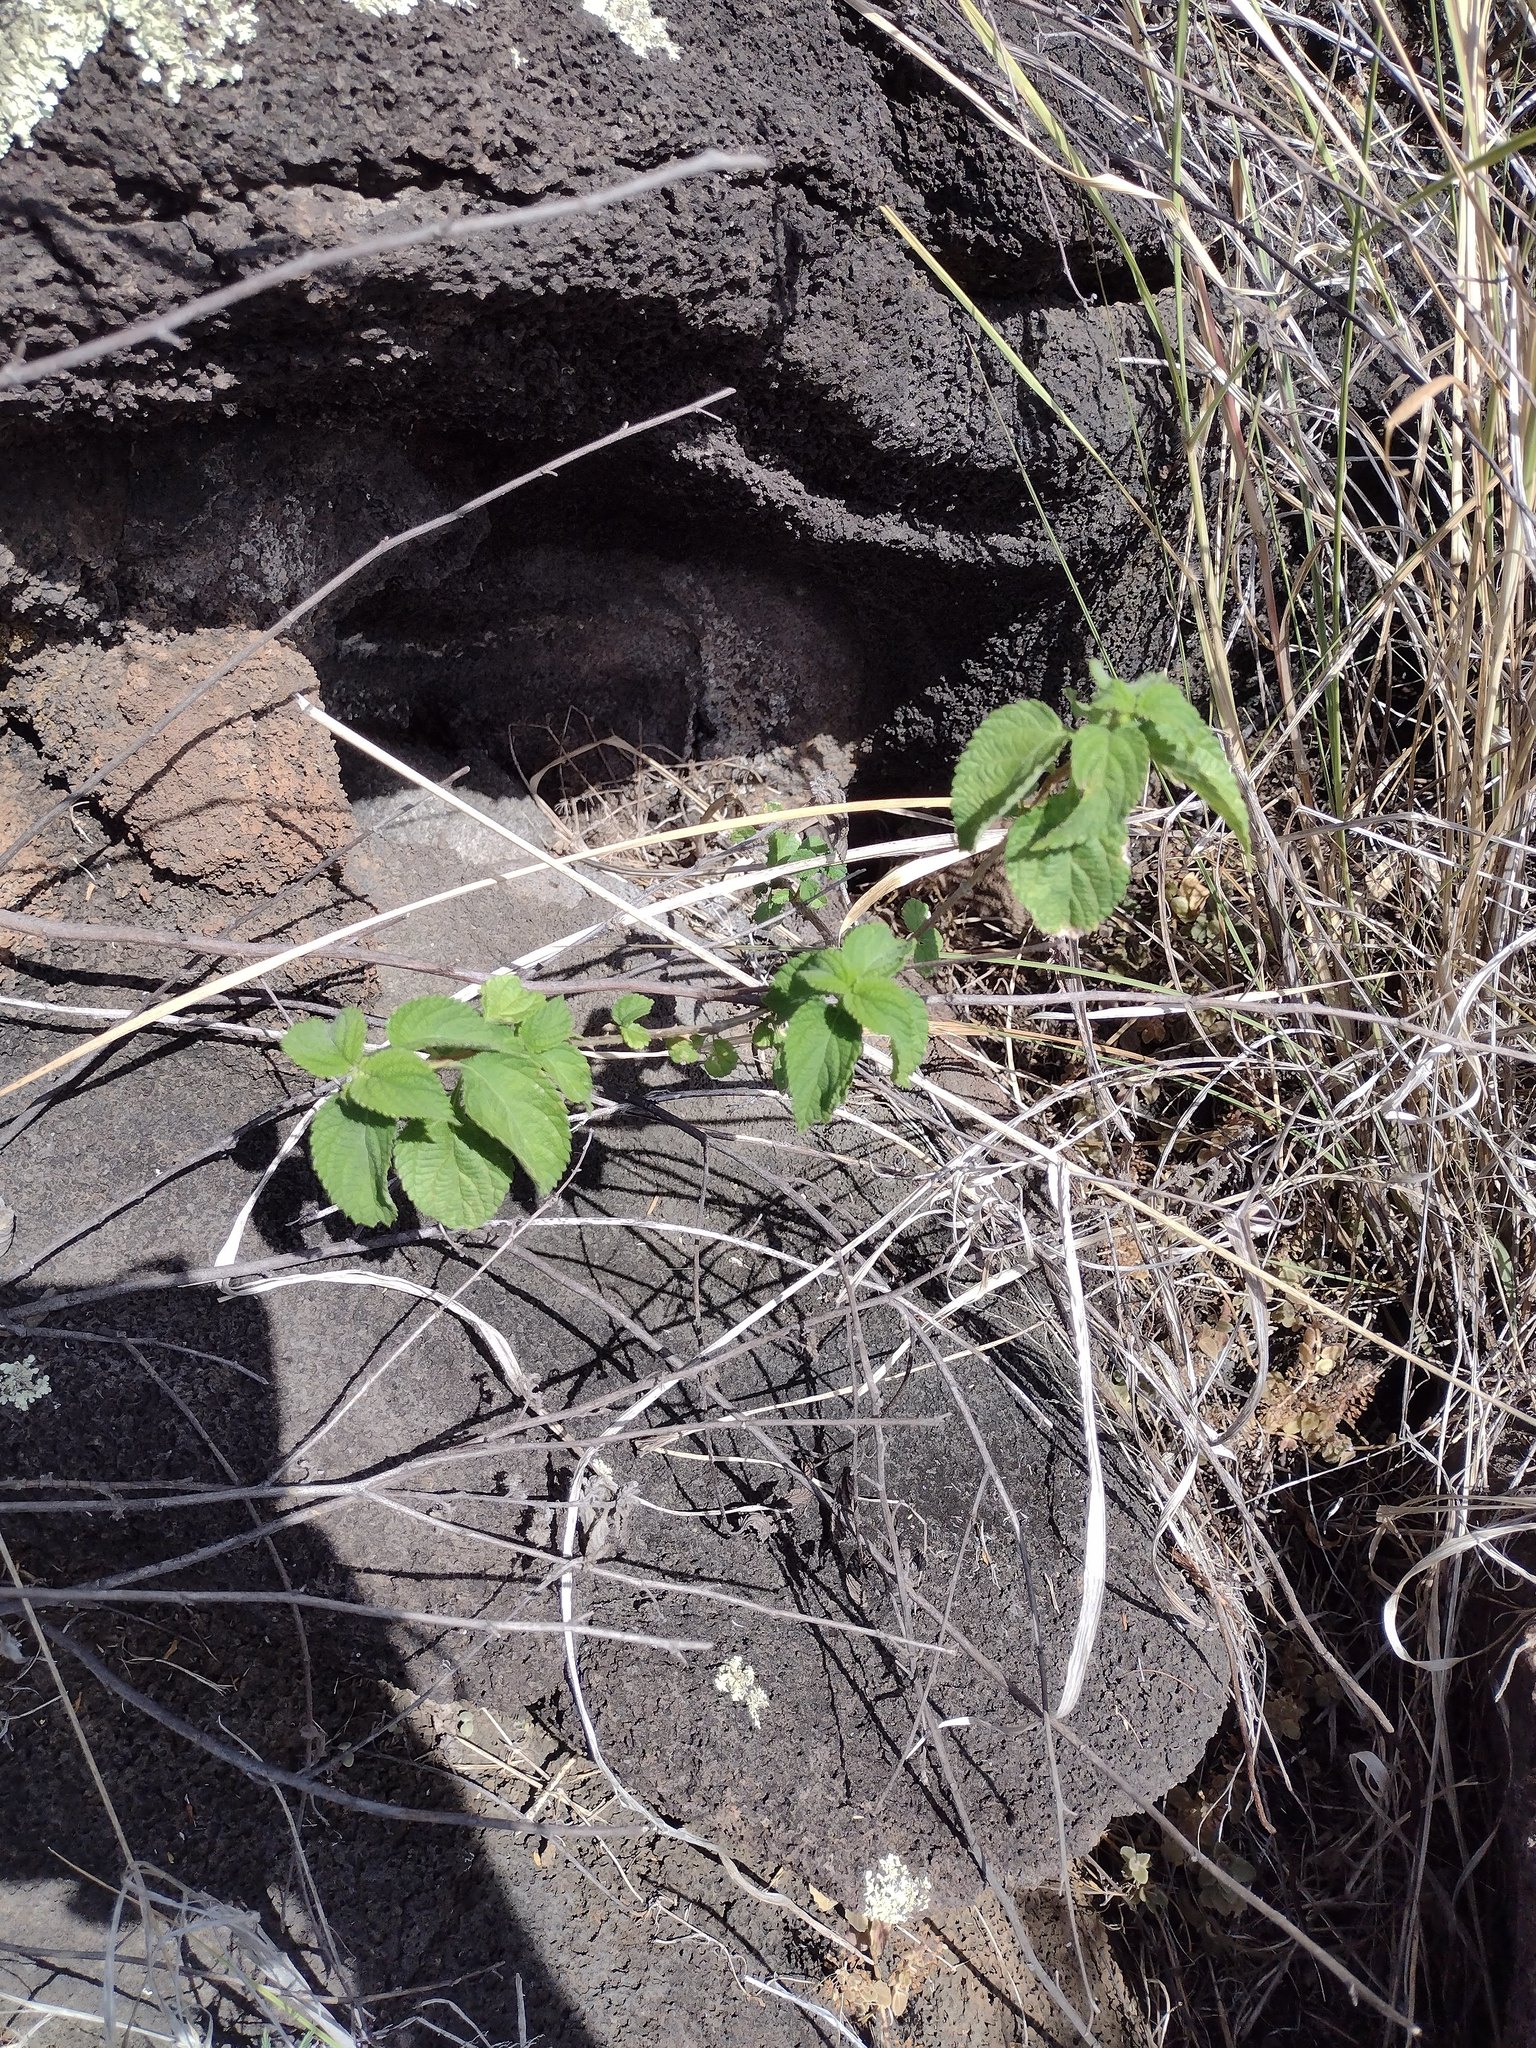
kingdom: Plantae
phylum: Tracheophyta
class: Magnoliopsida
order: Lamiales
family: Verbenaceae
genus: Lantana
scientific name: Lantana camara
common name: Lantana
